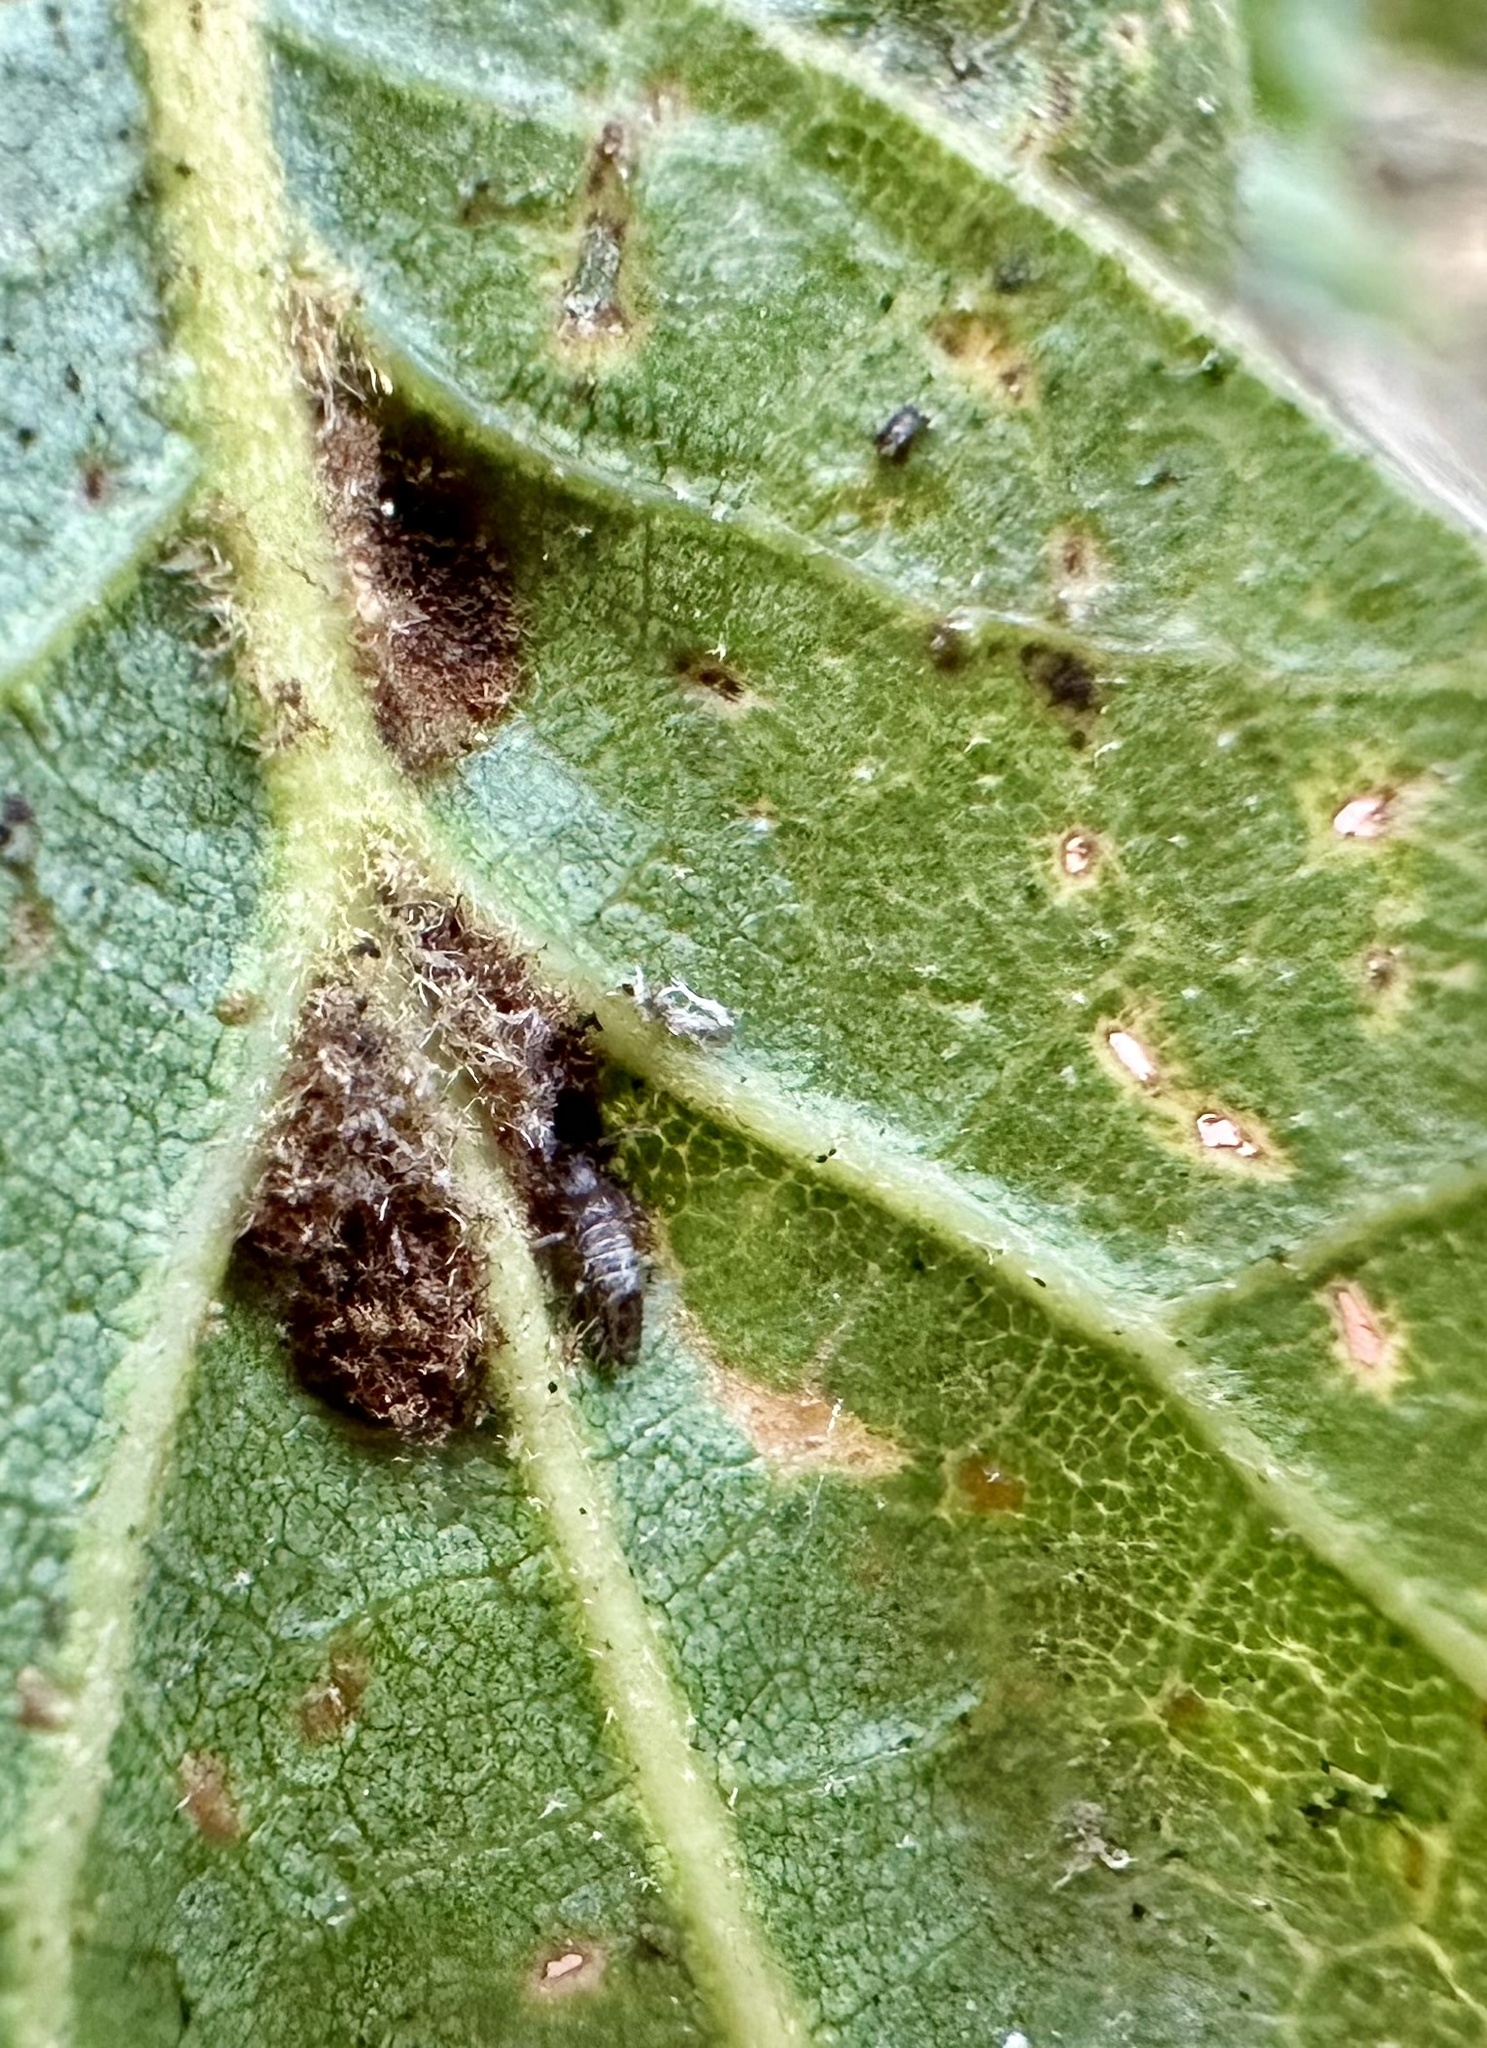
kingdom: Animalia
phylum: Arthropoda
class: Arachnida
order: Trombidiformes
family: Eriophyidae
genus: Aceria
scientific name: Aceria
